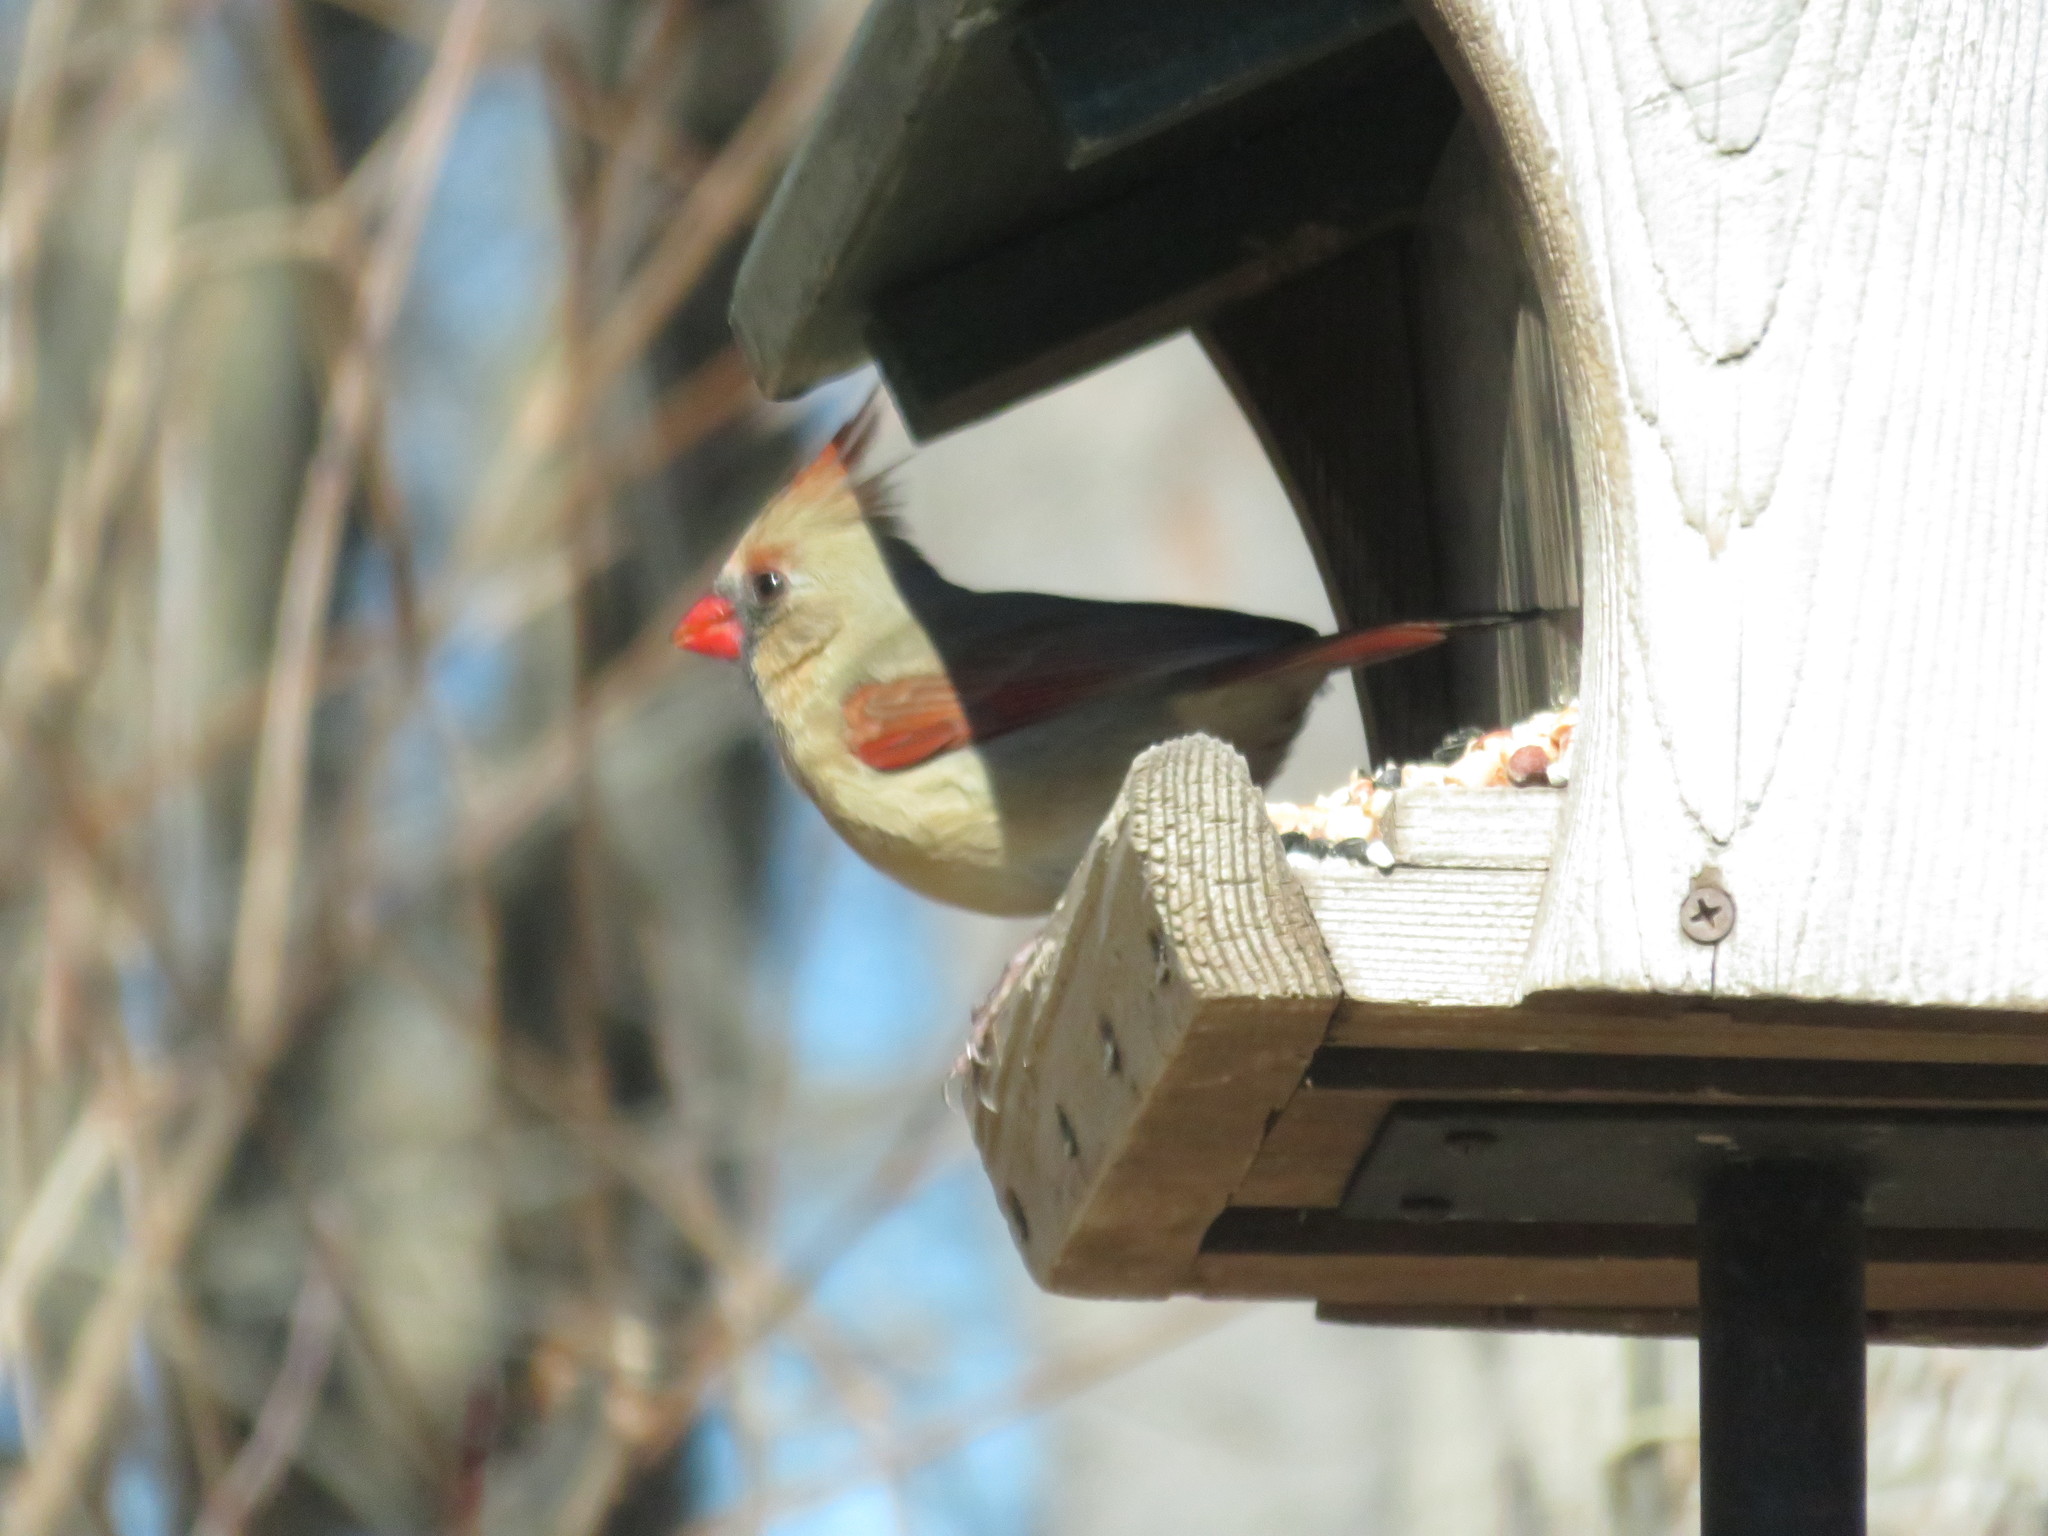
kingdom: Animalia
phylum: Chordata
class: Aves
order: Passeriformes
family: Cardinalidae
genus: Cardinalis
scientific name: Cardinalis cardinalis
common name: Northern cardinal
